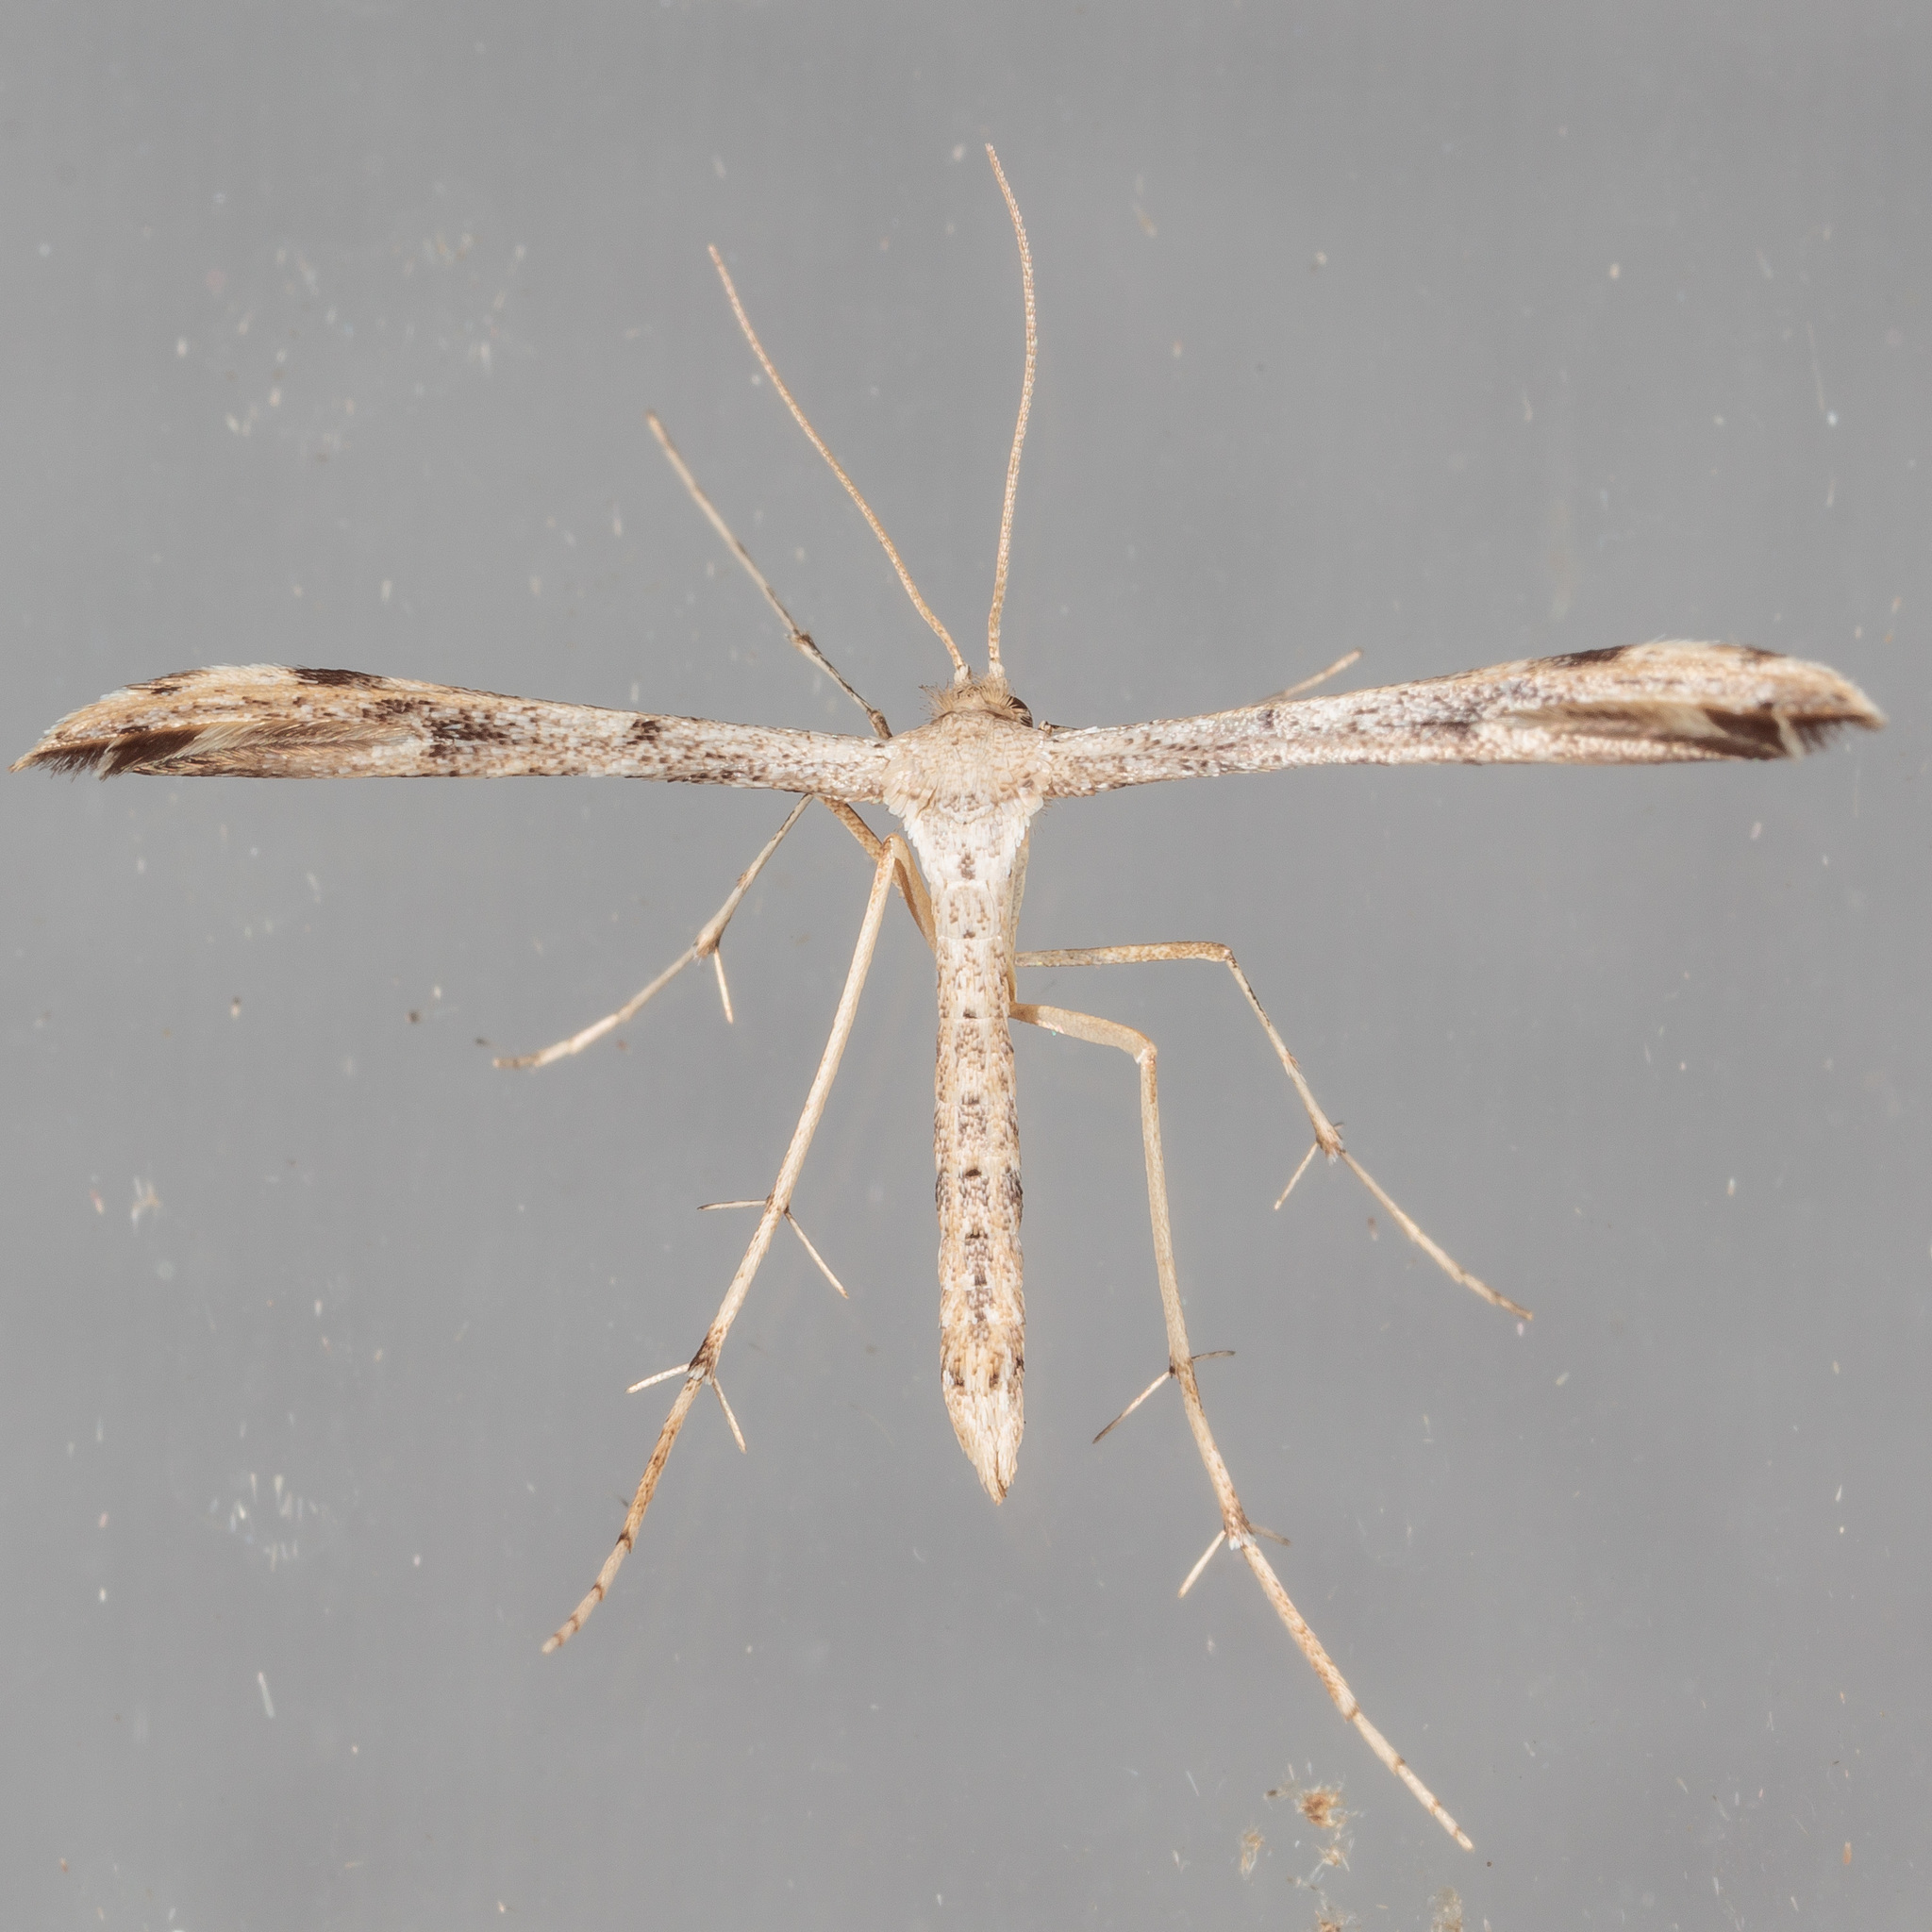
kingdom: Animalia
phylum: Arthropoda
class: Insecta
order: Lepidoptera
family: Pterophoridae
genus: Adaina
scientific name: Adaina ambrosiae
